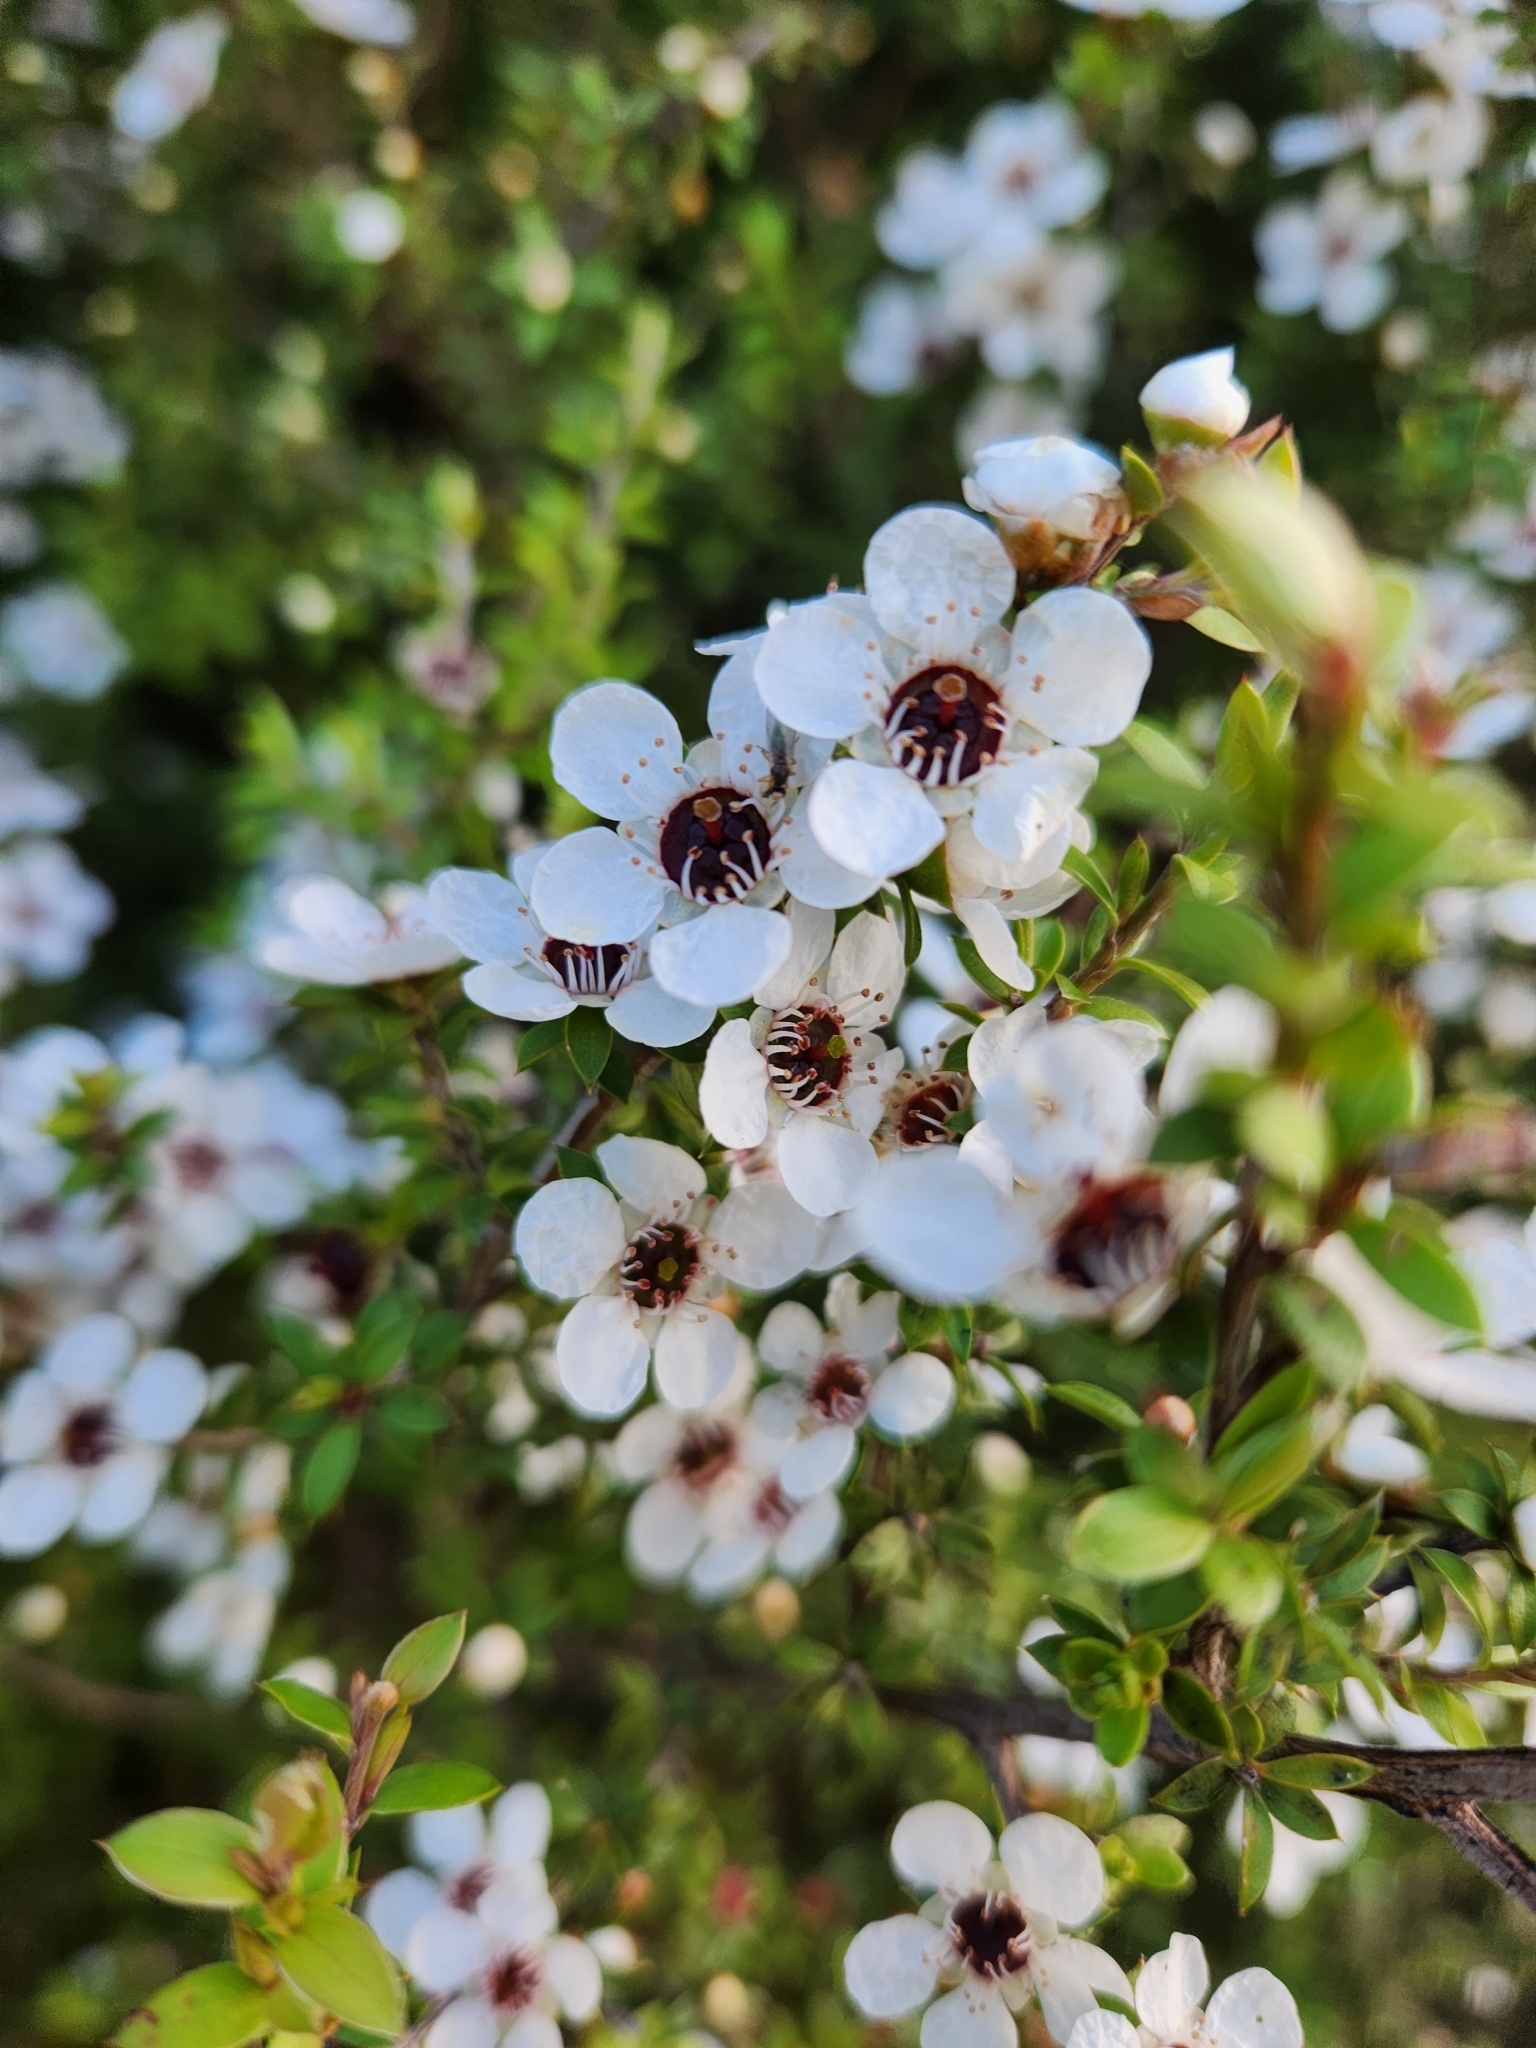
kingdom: Plantae
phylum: Tracheophyta
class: Magnoliopsida
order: Myrtales
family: Myrtaceae
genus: Leptospermum
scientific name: Leptospermum scoparium
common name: Broom tea-tree
